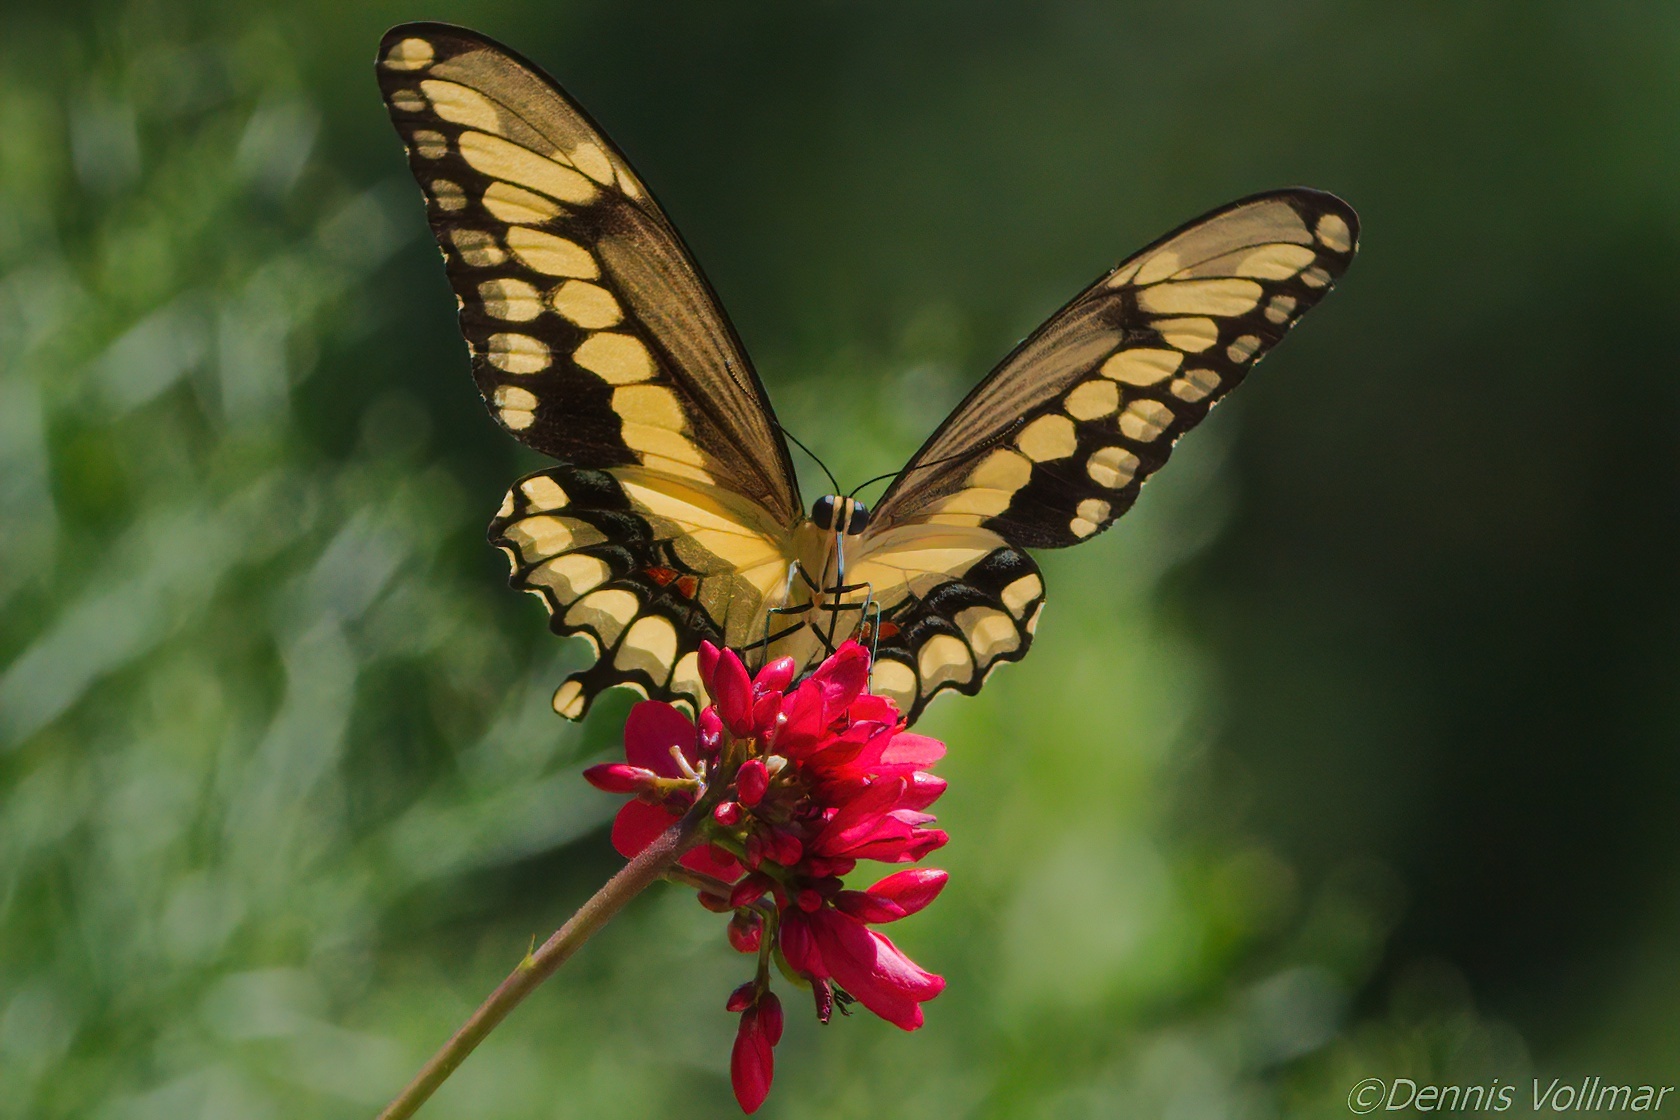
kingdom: Animalia
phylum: Arthropoda
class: Insecta
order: Lepidoptera
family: Papilionidae
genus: Papilio
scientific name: Papilio cresphontes
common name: Giant swallowtail
